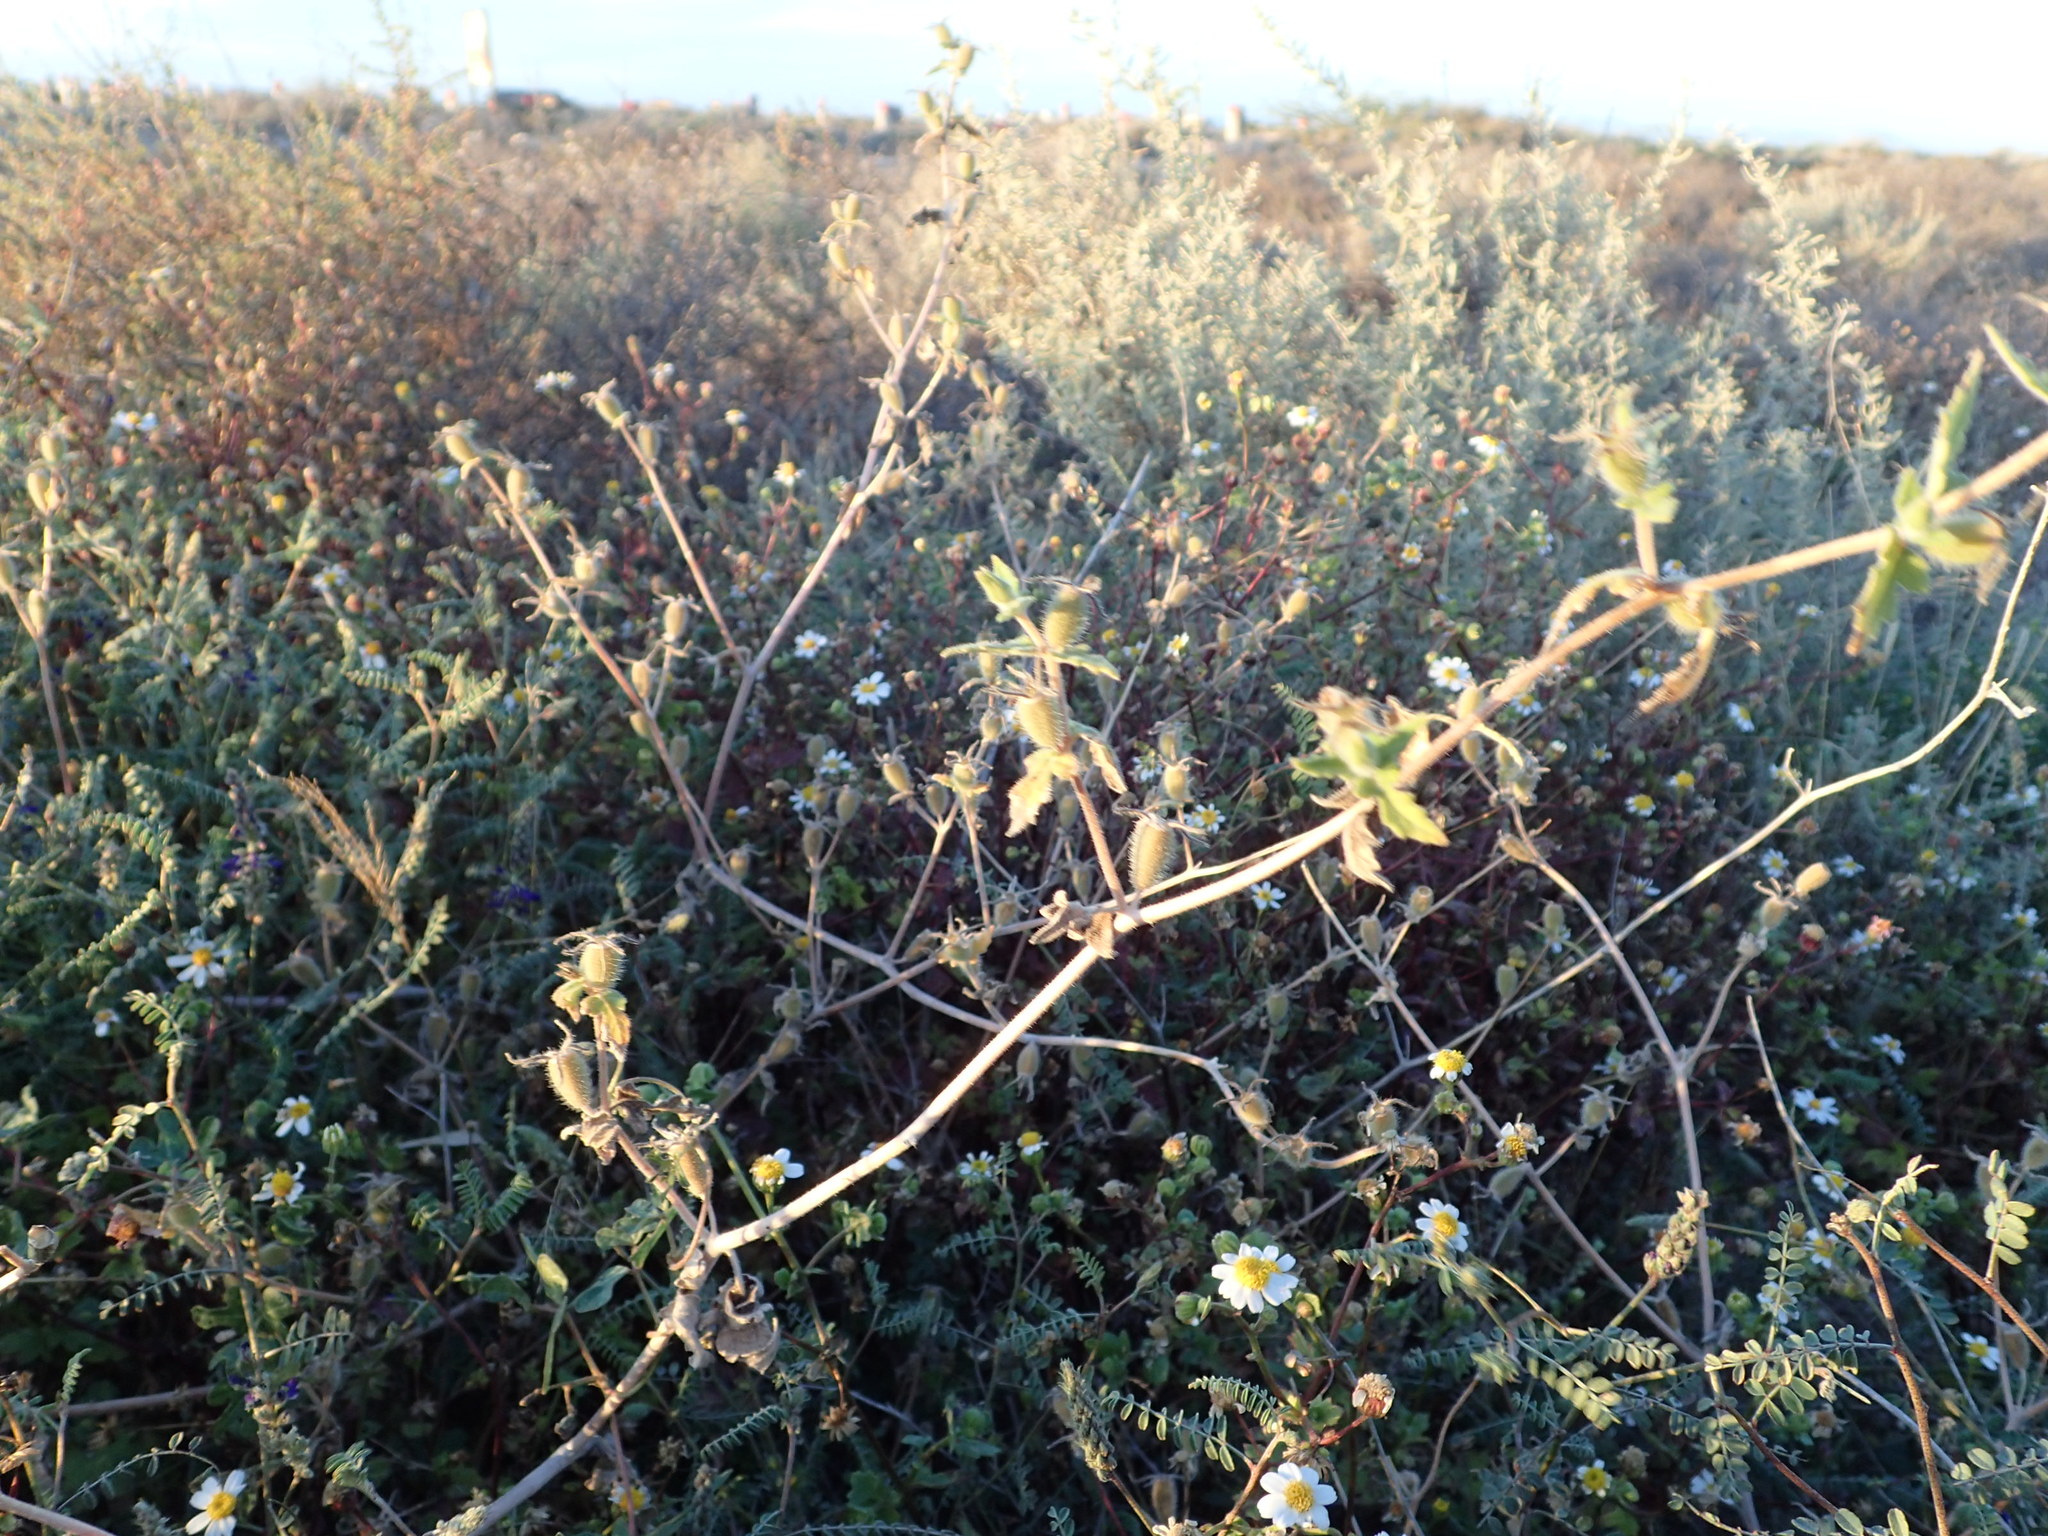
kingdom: Plantae
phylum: Tracheophyta
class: Magnoliopsida
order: Cornales
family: Loasaceae
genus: Mentzelia
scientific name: Mentzelia adhaerens
